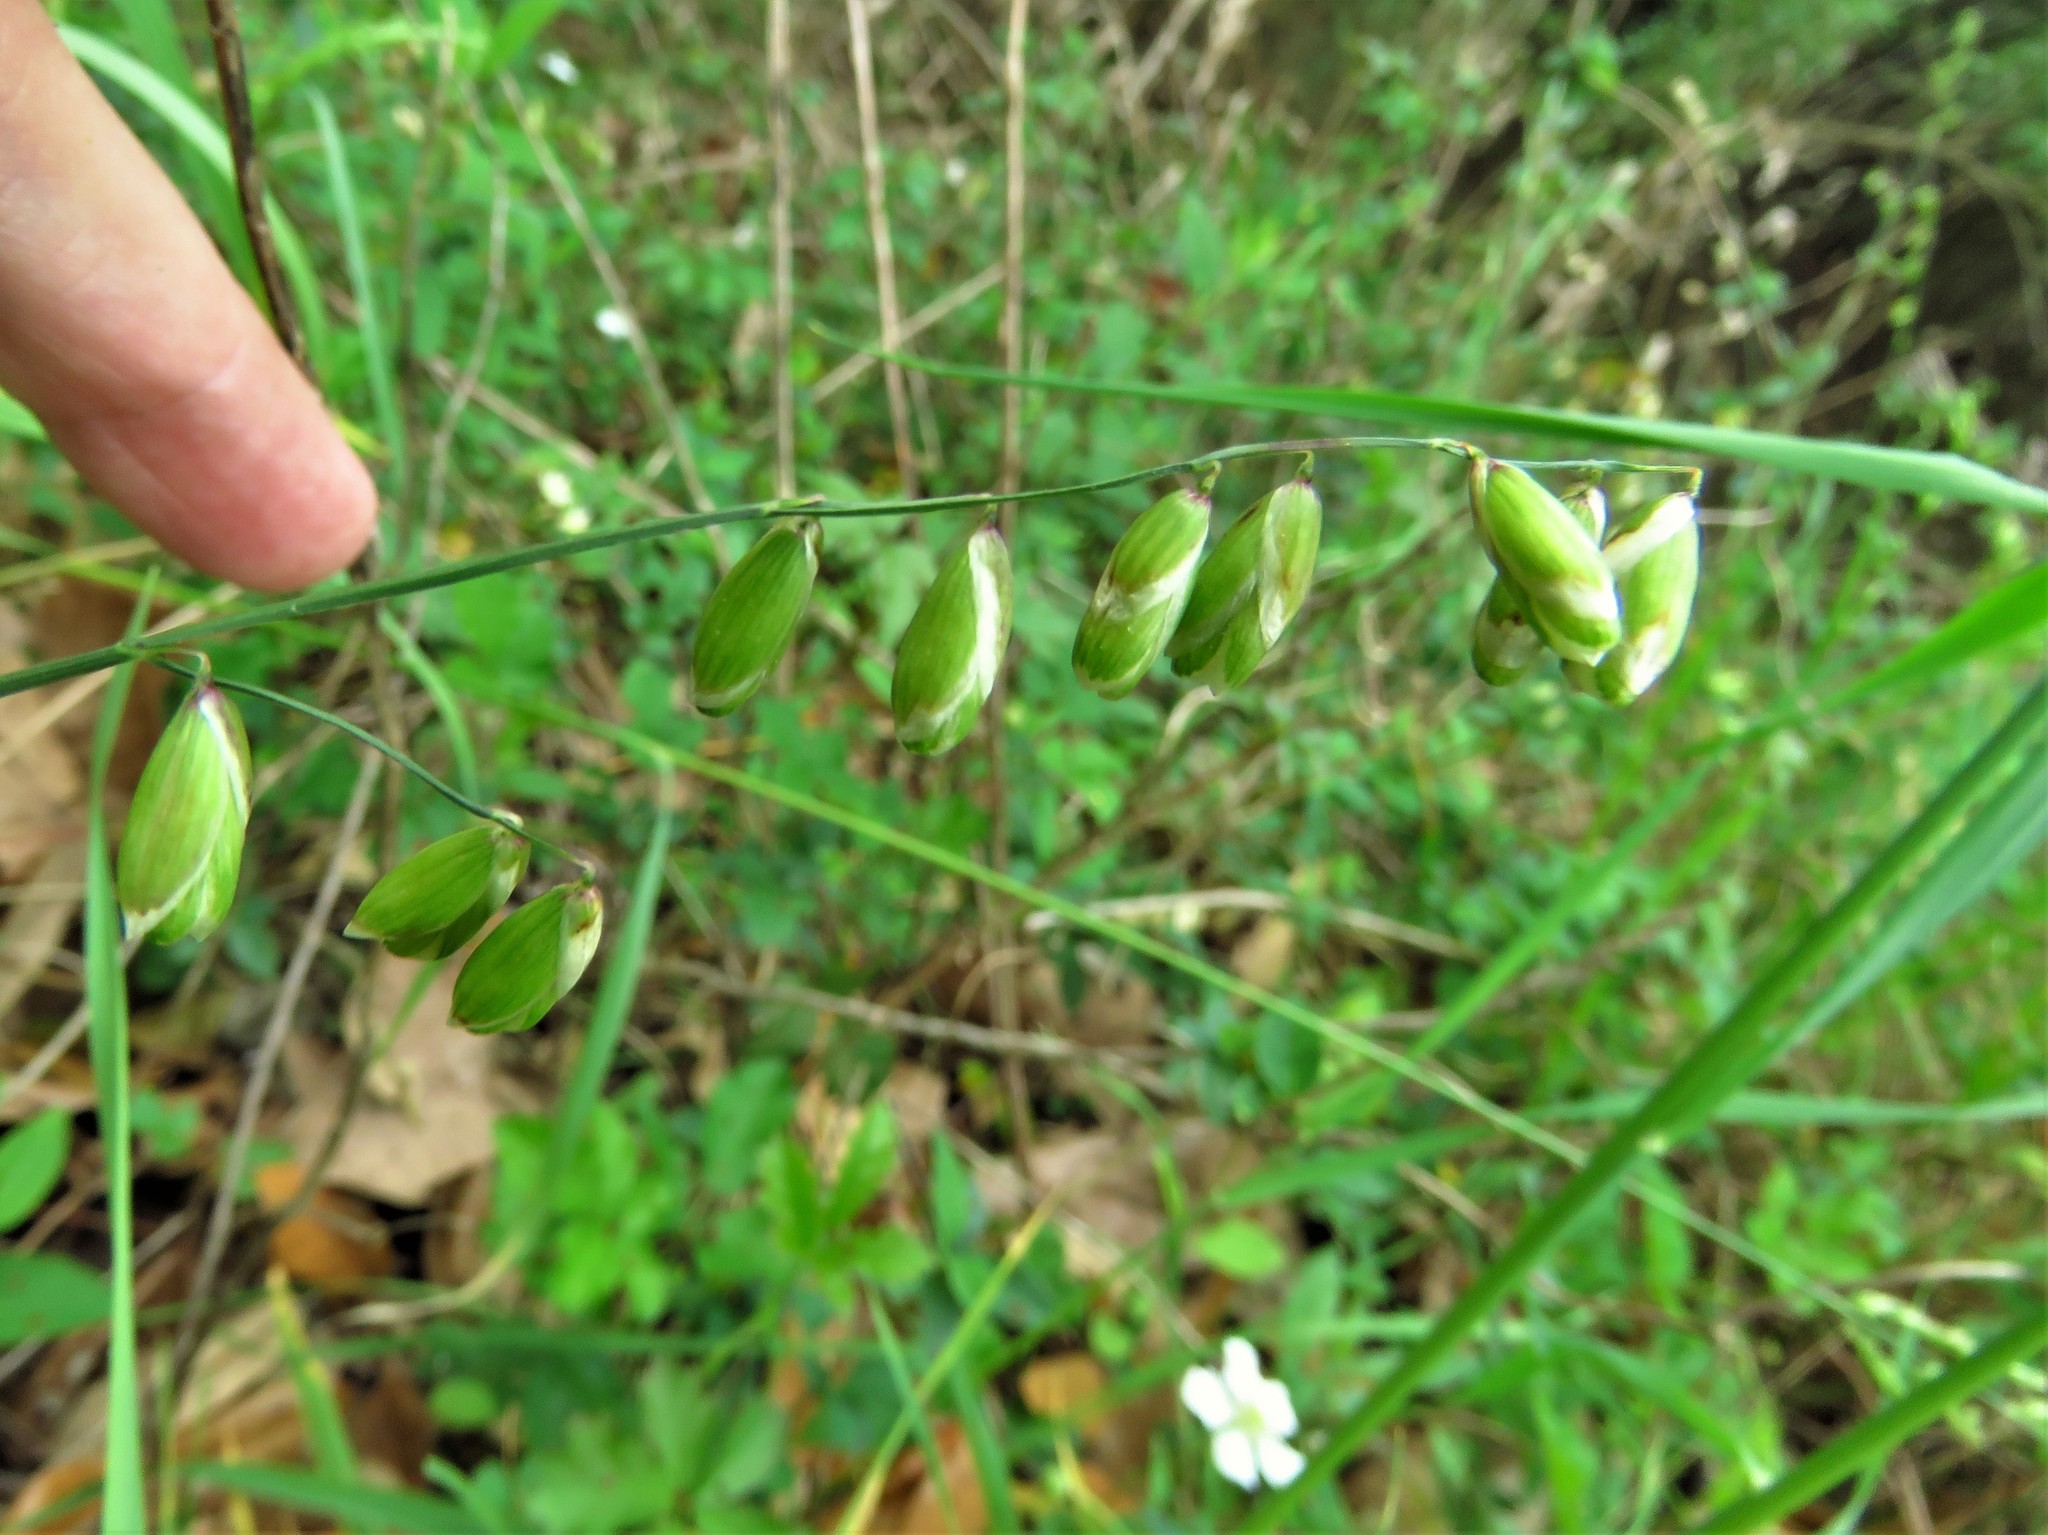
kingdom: Plantae
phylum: Tracheophyta
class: Liliopsida
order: Poales
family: Poaceae
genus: Melica
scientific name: Melica mutica
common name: Two-flower melic
